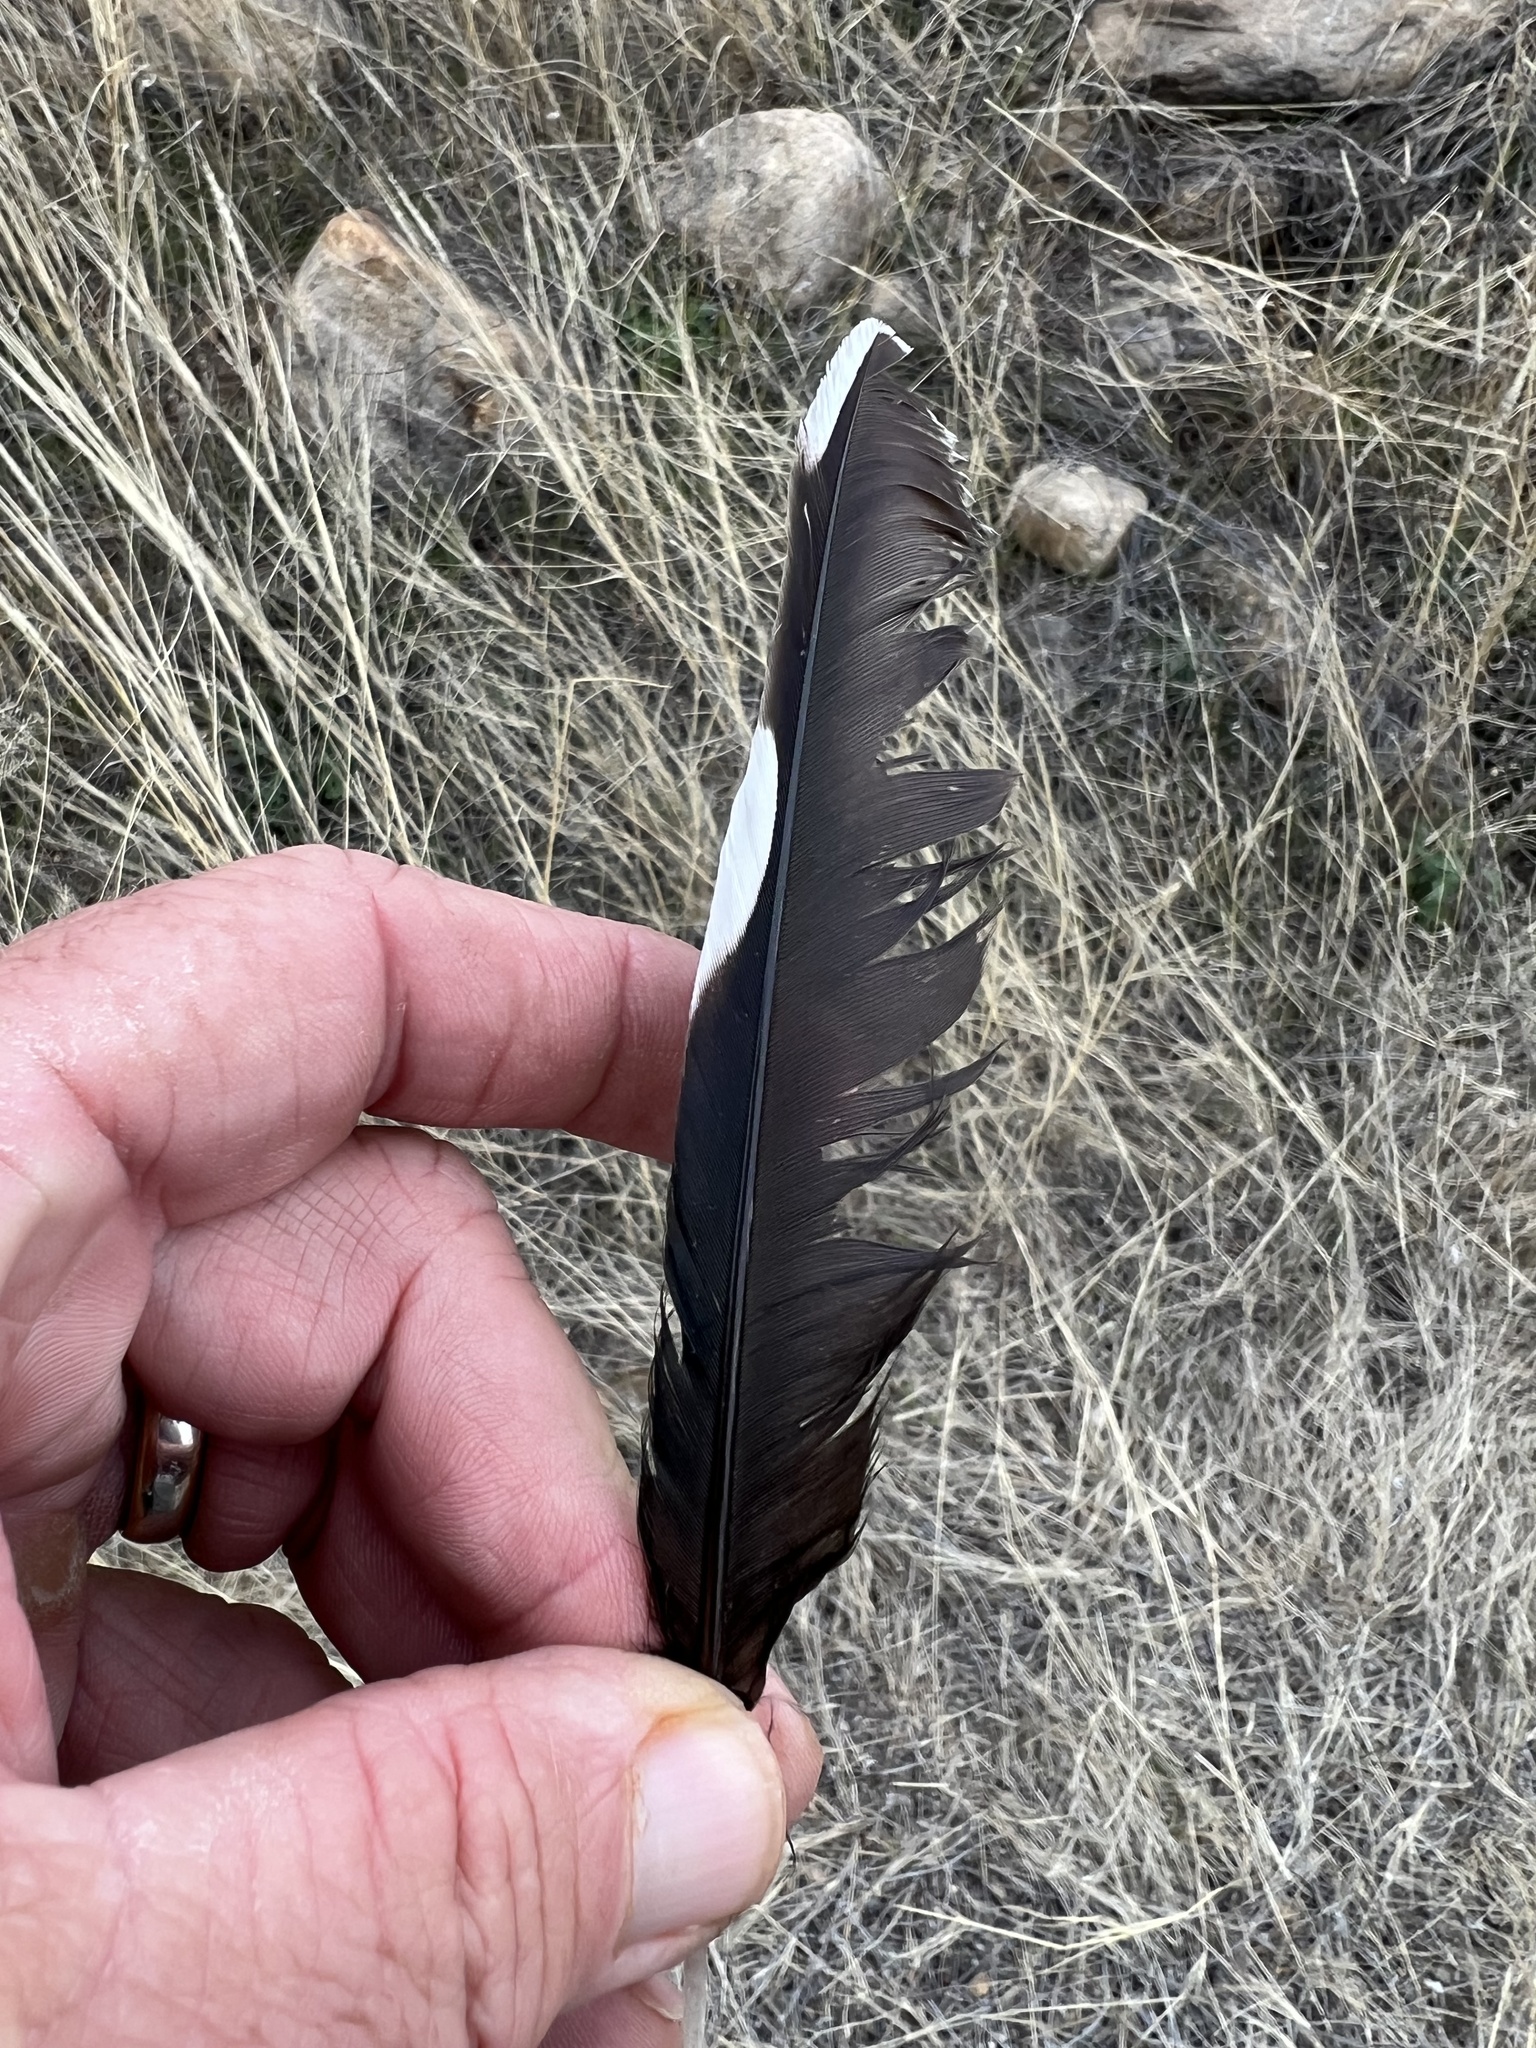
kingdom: Animalia
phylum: Chordata
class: Aves
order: Piciformes
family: Picidae
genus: Melanerpes
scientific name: Melanerpes formicivorus
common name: Acorn woodpecker
